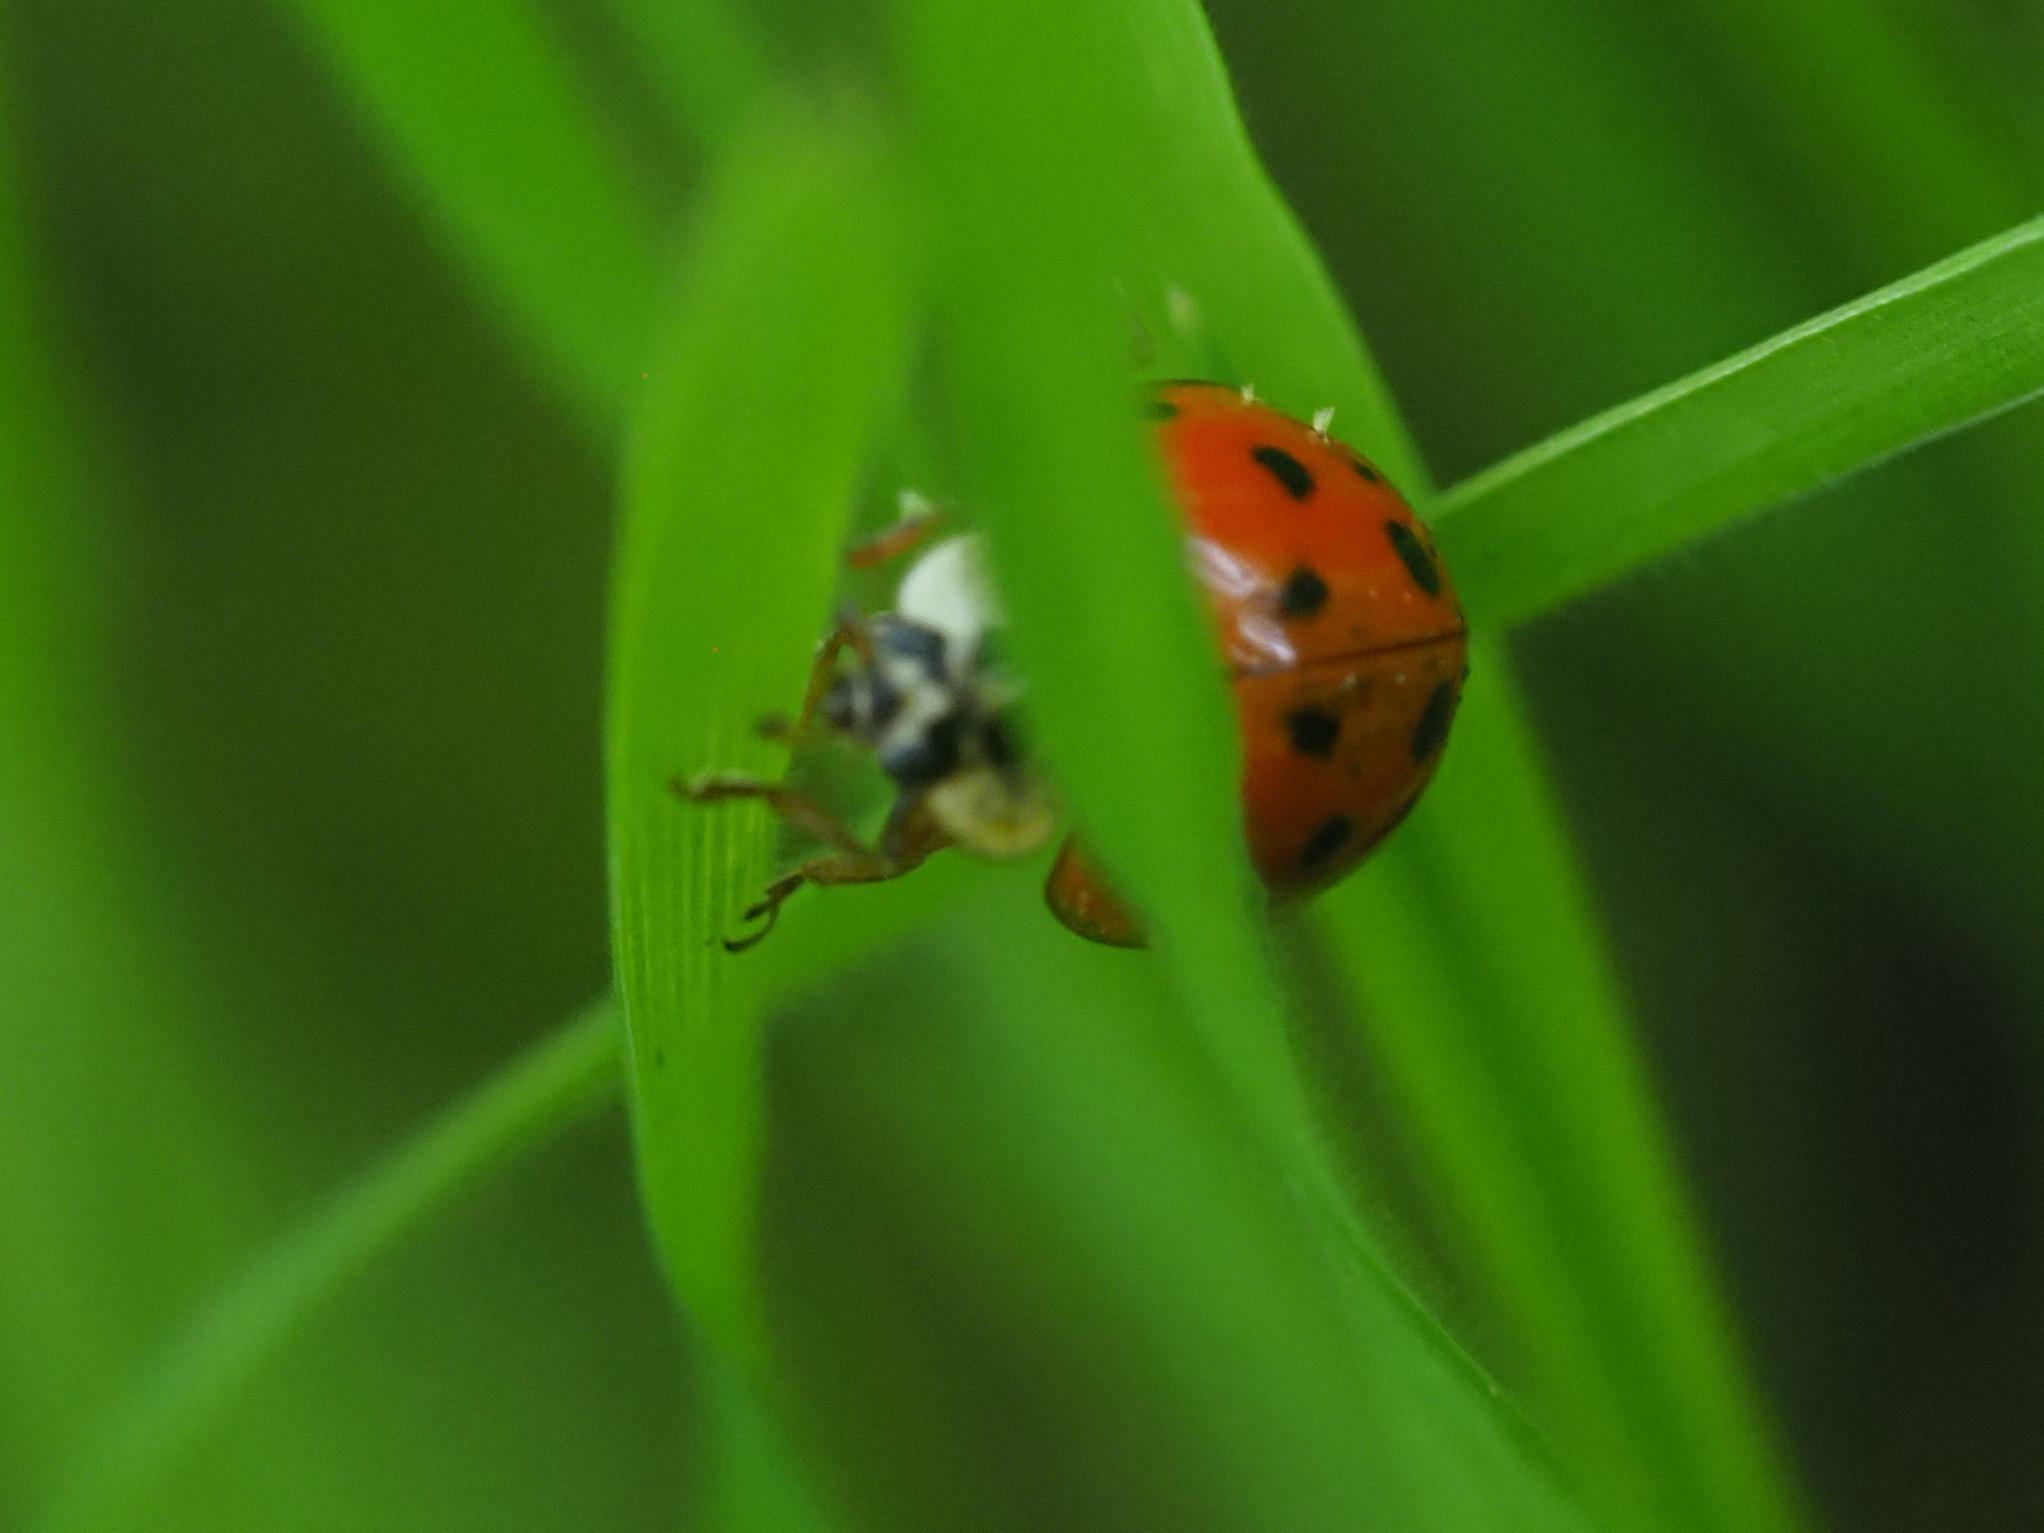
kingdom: Animalia
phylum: Arthropoda
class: Insecta
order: Coleoptera
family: Coccinellidae
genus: Harmonia
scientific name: Harmonia axyridis
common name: Harlequin ladybird
